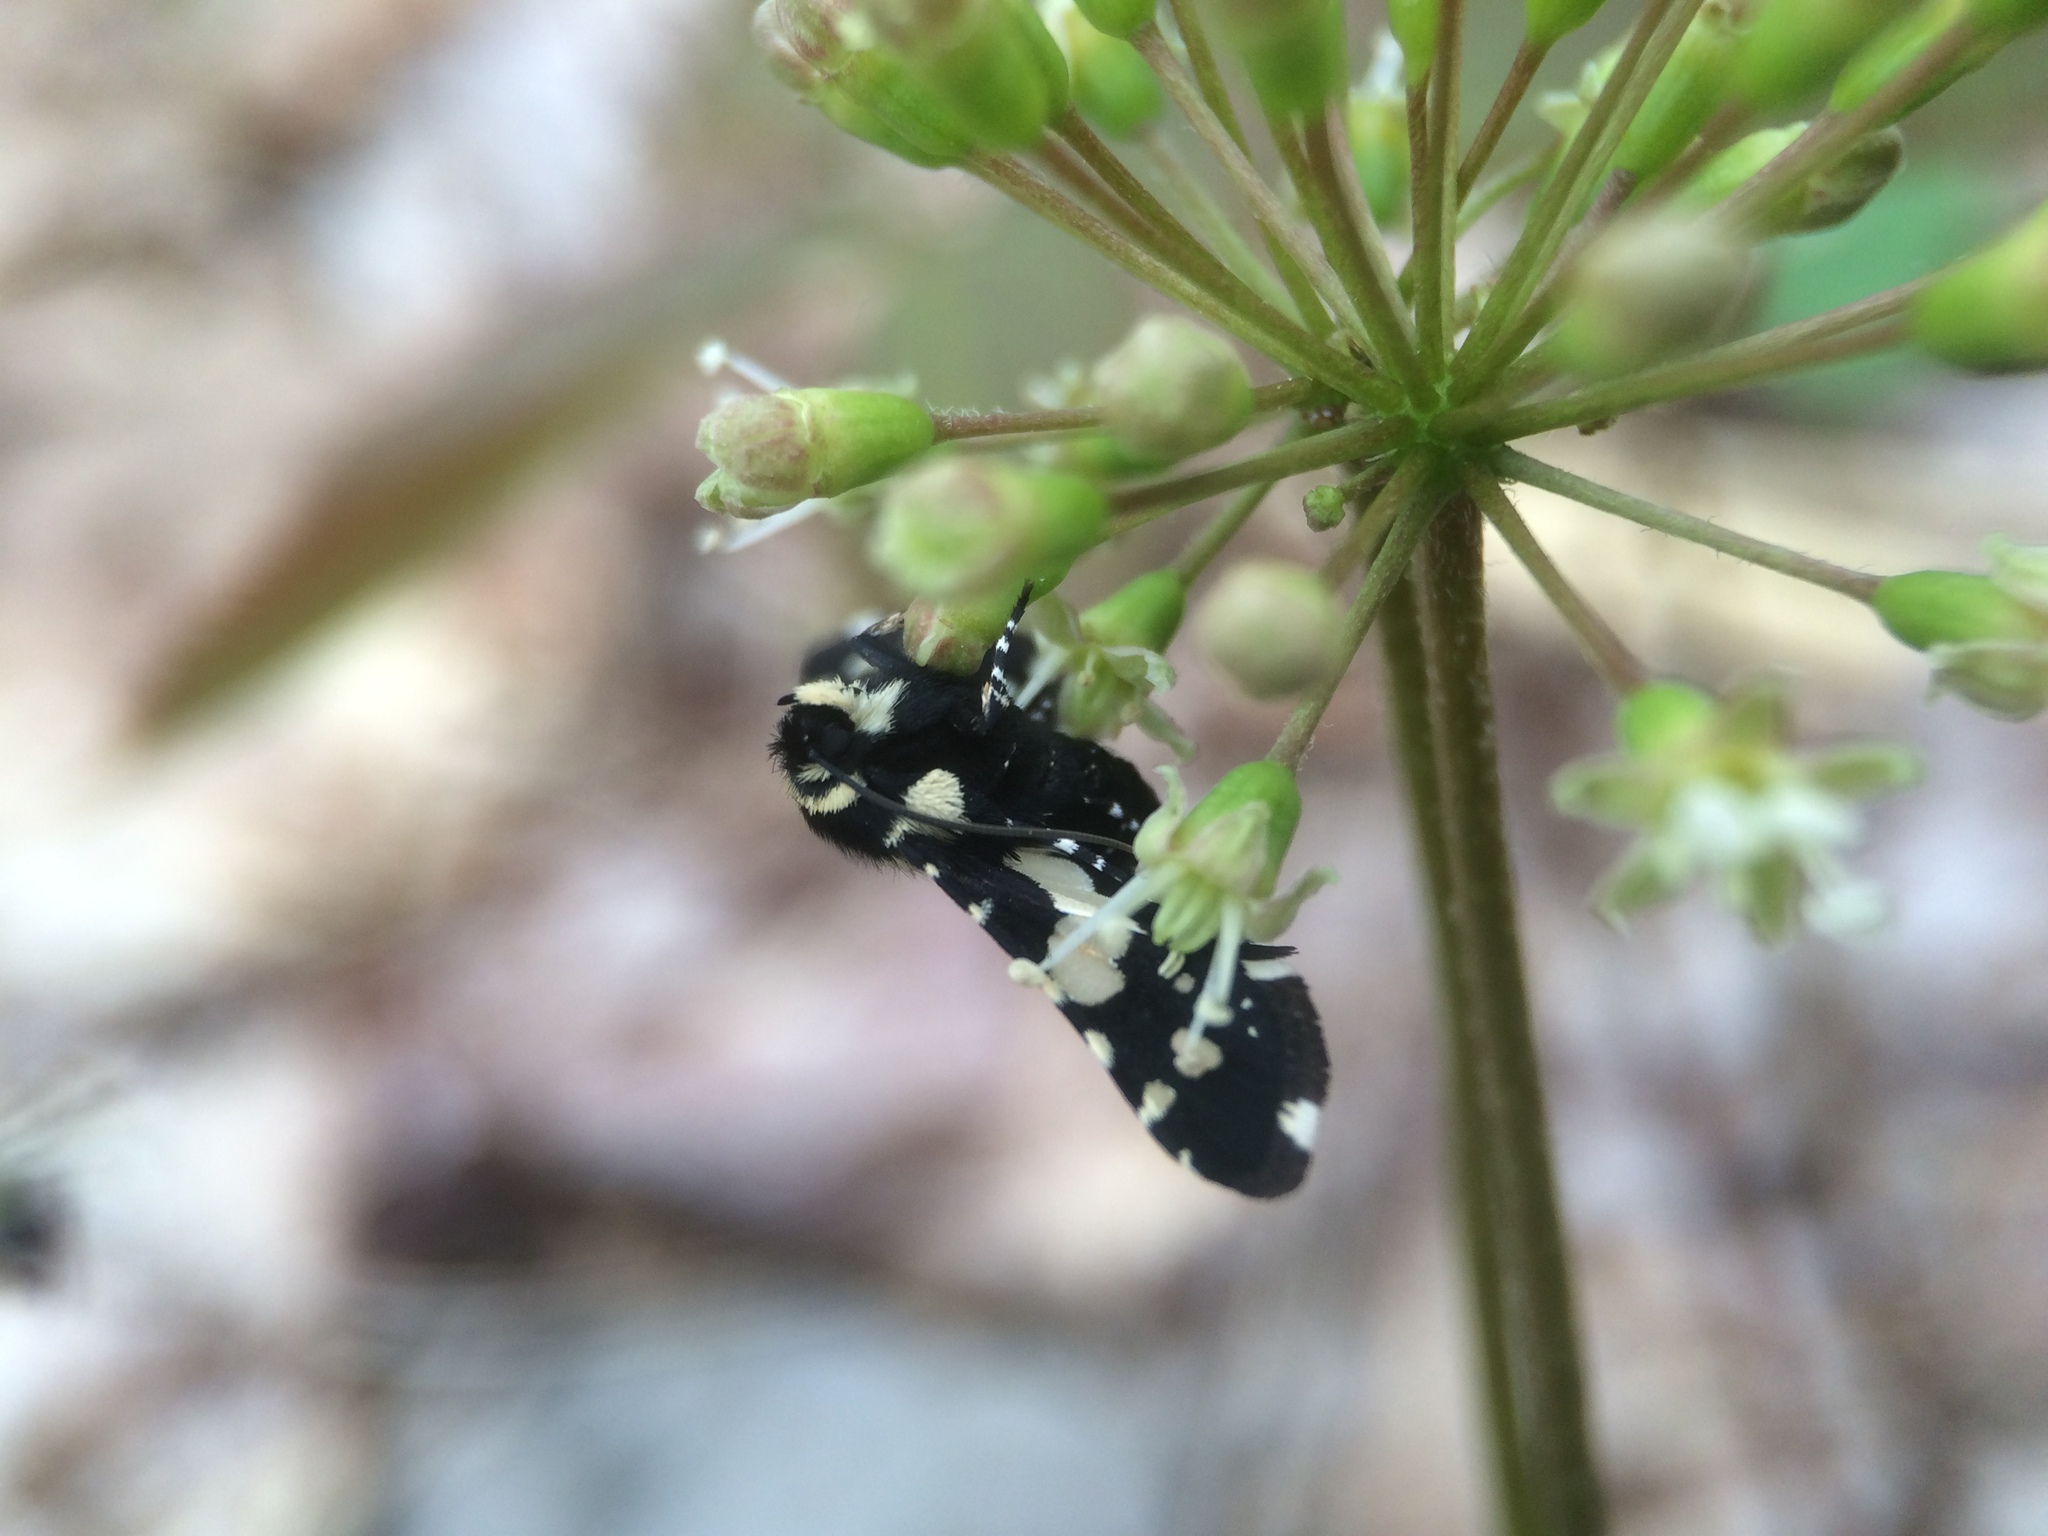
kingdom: Animalia
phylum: Arthropoda
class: Insecta
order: Lepidoptera
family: Thyrididae
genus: Pseudothyris
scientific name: Pseudothyris sepulchralis
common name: Mournful thyris moth
